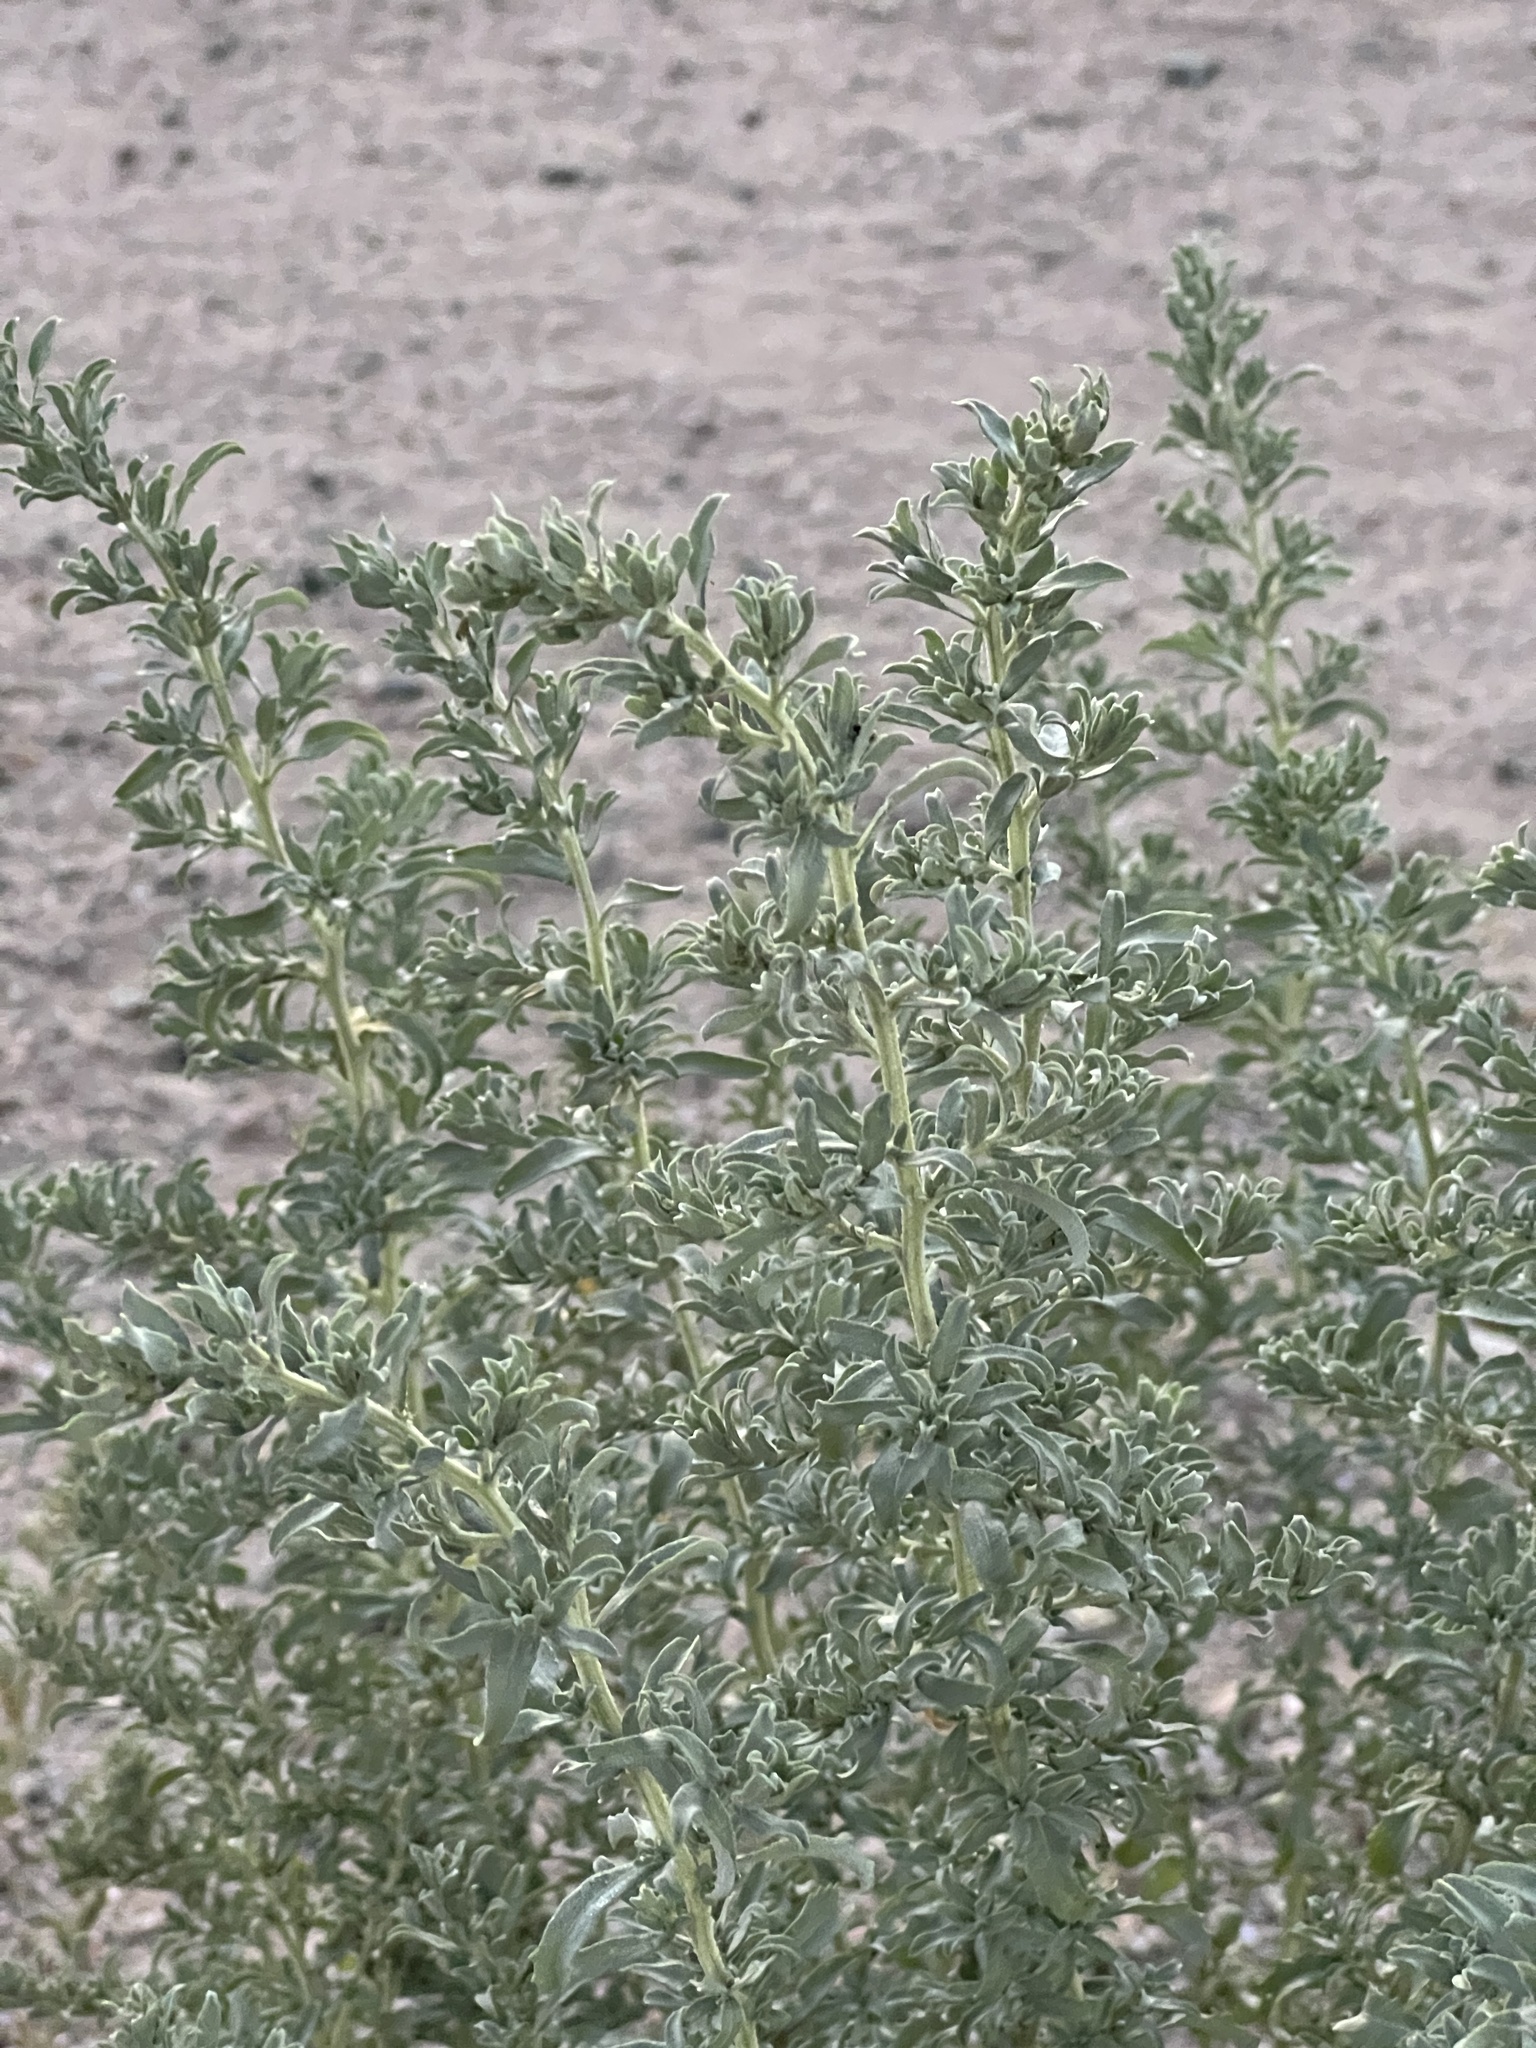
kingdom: Plantae
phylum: Tracheophyta
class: Magnoliopsida
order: Caryophyllales
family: Amaranthaceae
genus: Atriplex
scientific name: Atriplex elegans
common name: Wheelscale orach
